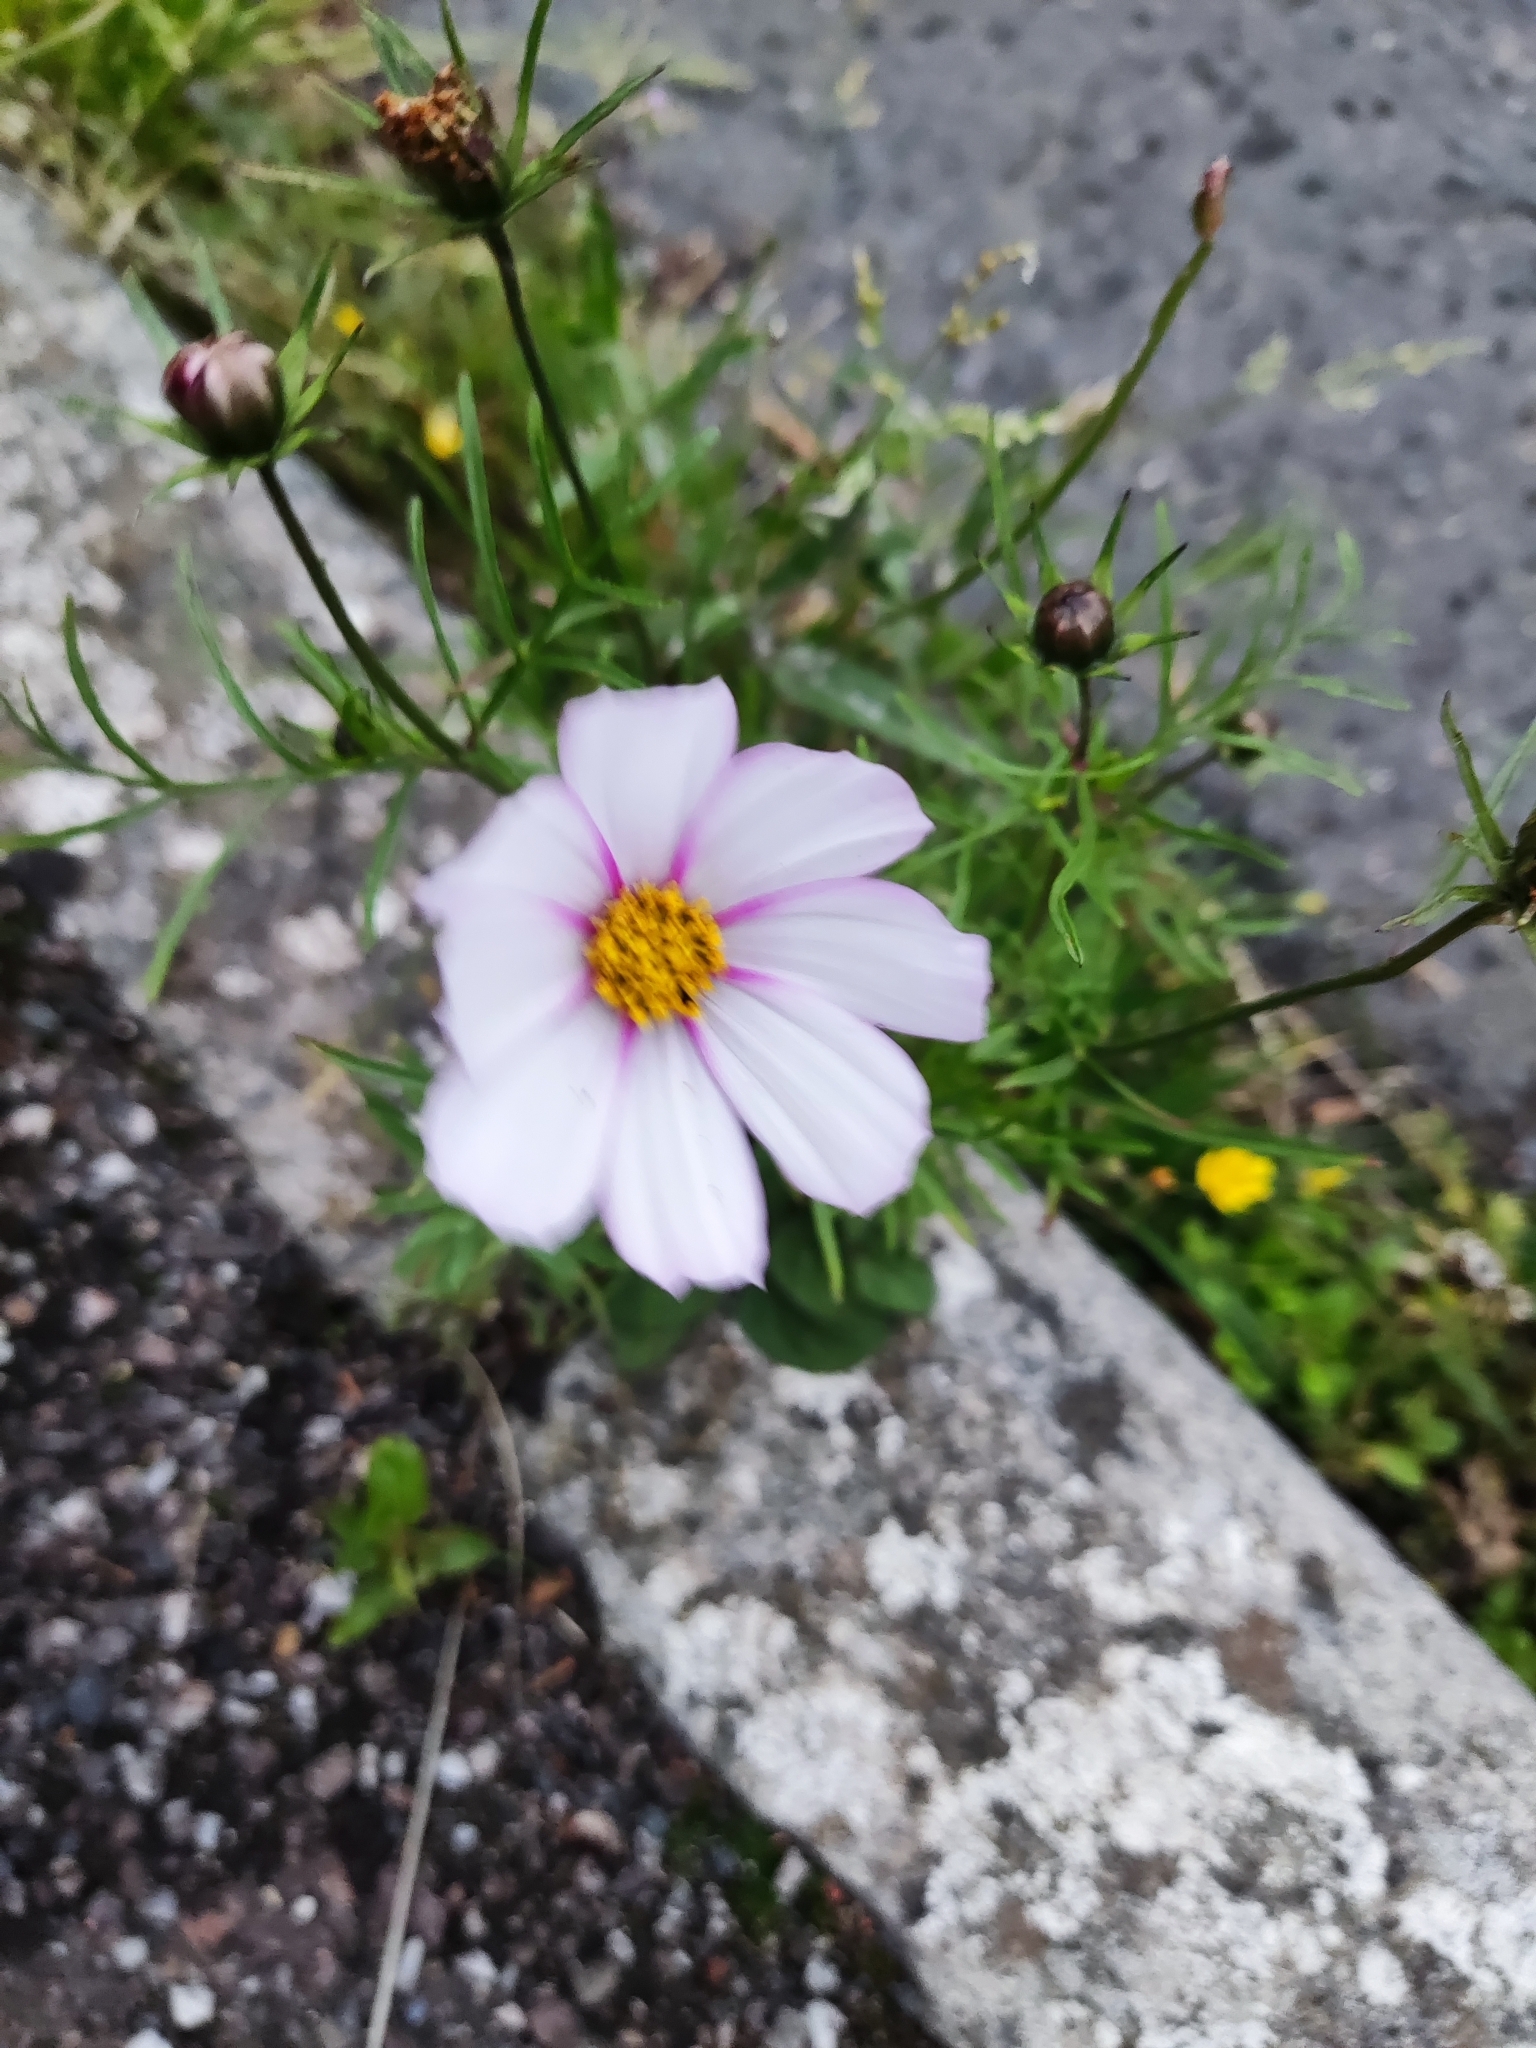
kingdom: Plantae
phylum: Tracheophyta
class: Magnoliopsida
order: Asterales
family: Asteraceae
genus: Cosmos
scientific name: Cosmos bipinnatus
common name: Garden cosmos
